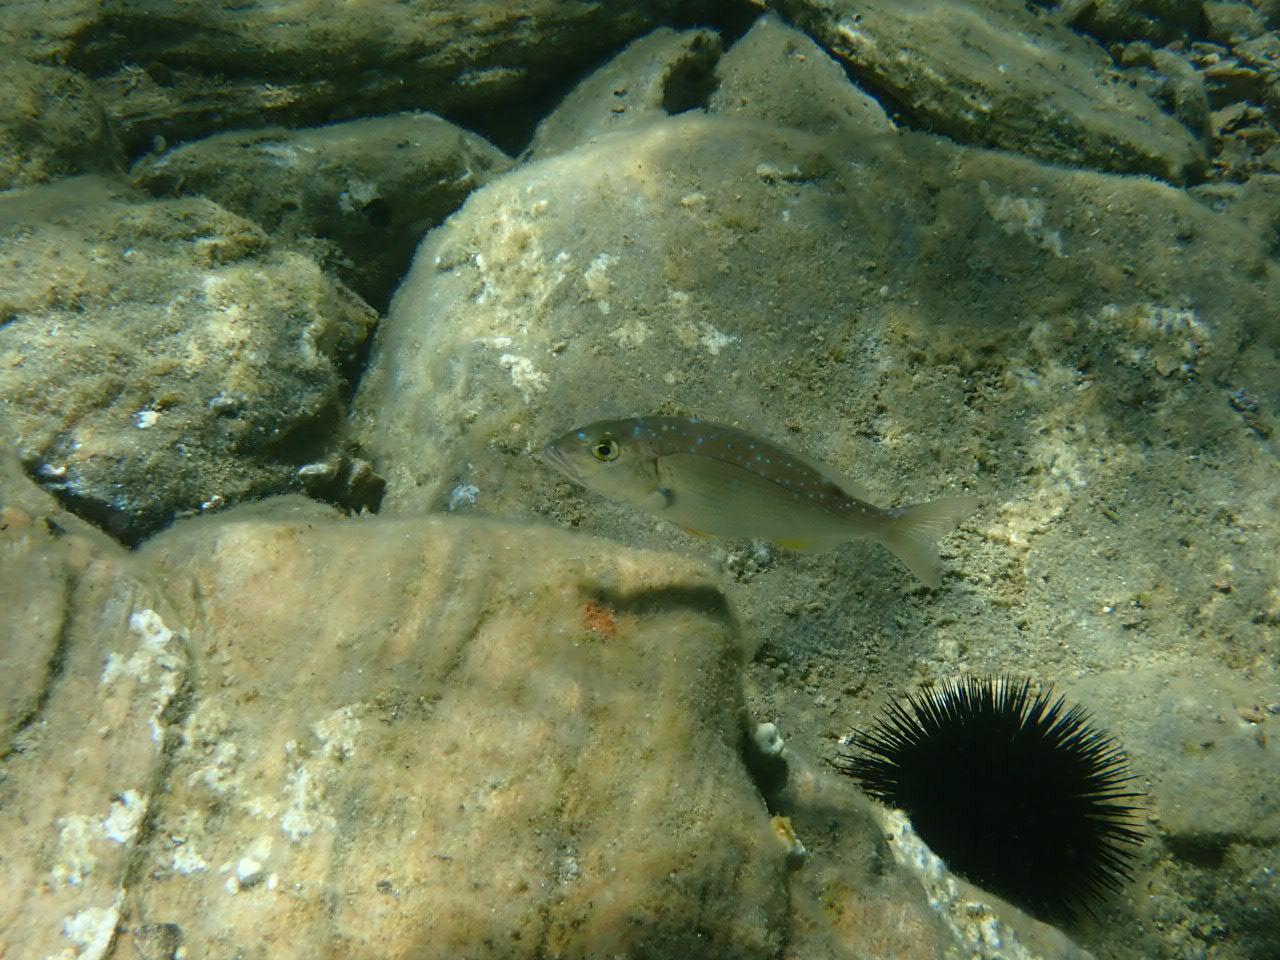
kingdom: Animalia
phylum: Chordata
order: Perciformes
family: Sparidae
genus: Dentex
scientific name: Dentex dentex
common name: Dentex
